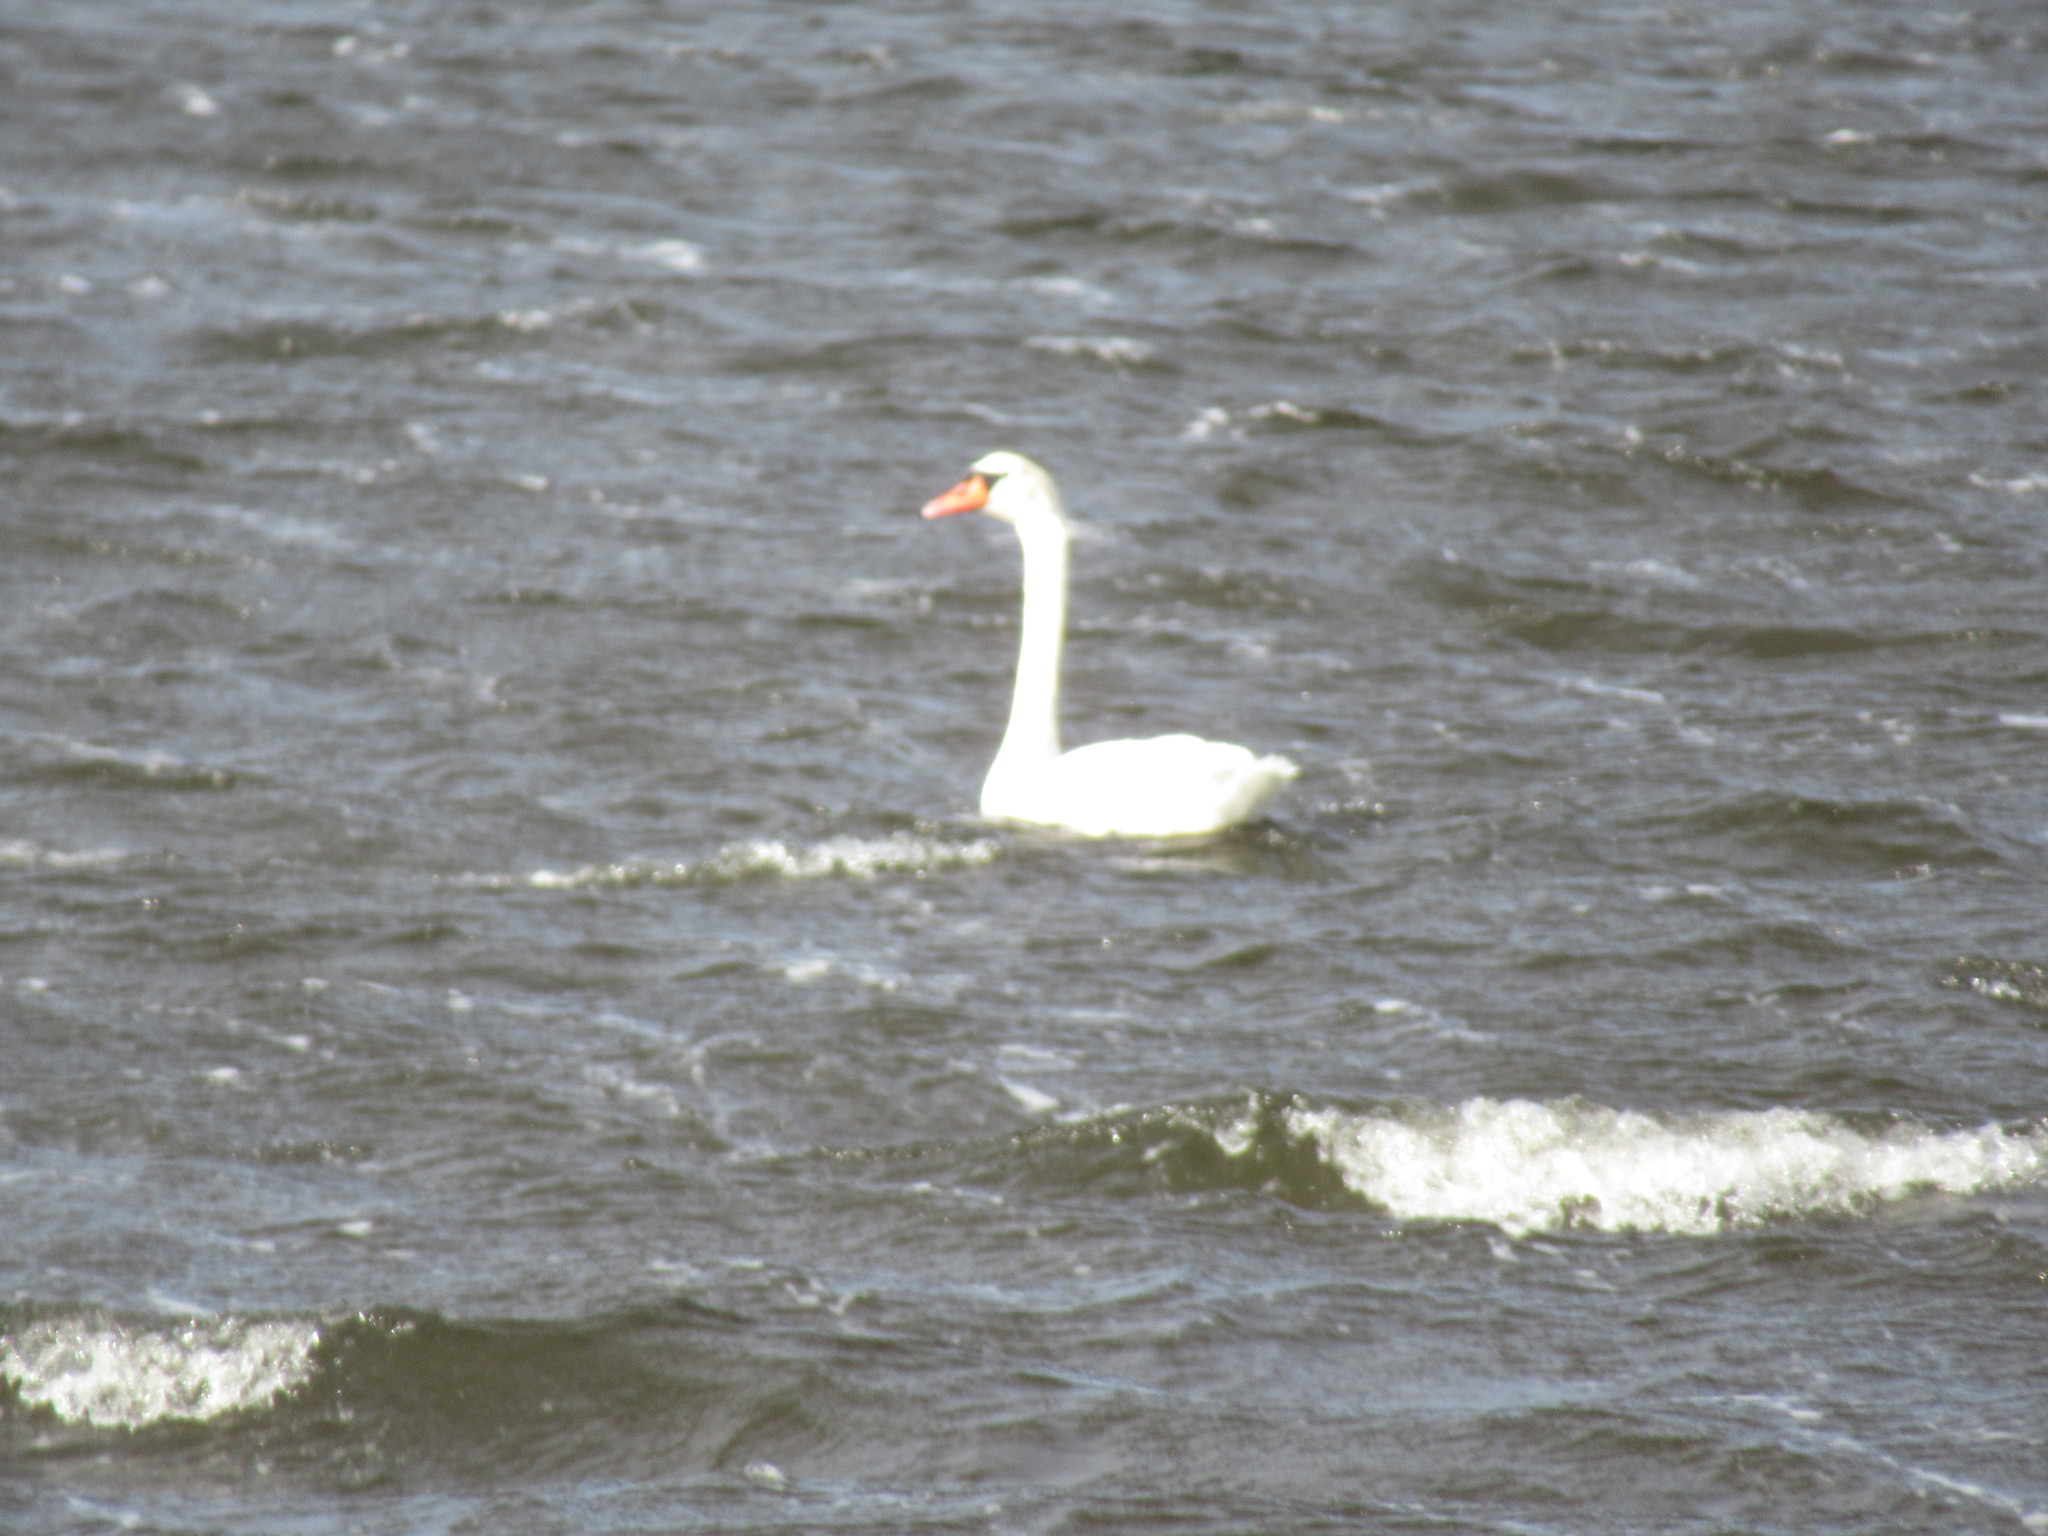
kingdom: Animalia
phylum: Chordata
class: Aves
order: Anseriformes
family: Anatidae
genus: Cygnus
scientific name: Cygnus olor
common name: Mute swan
